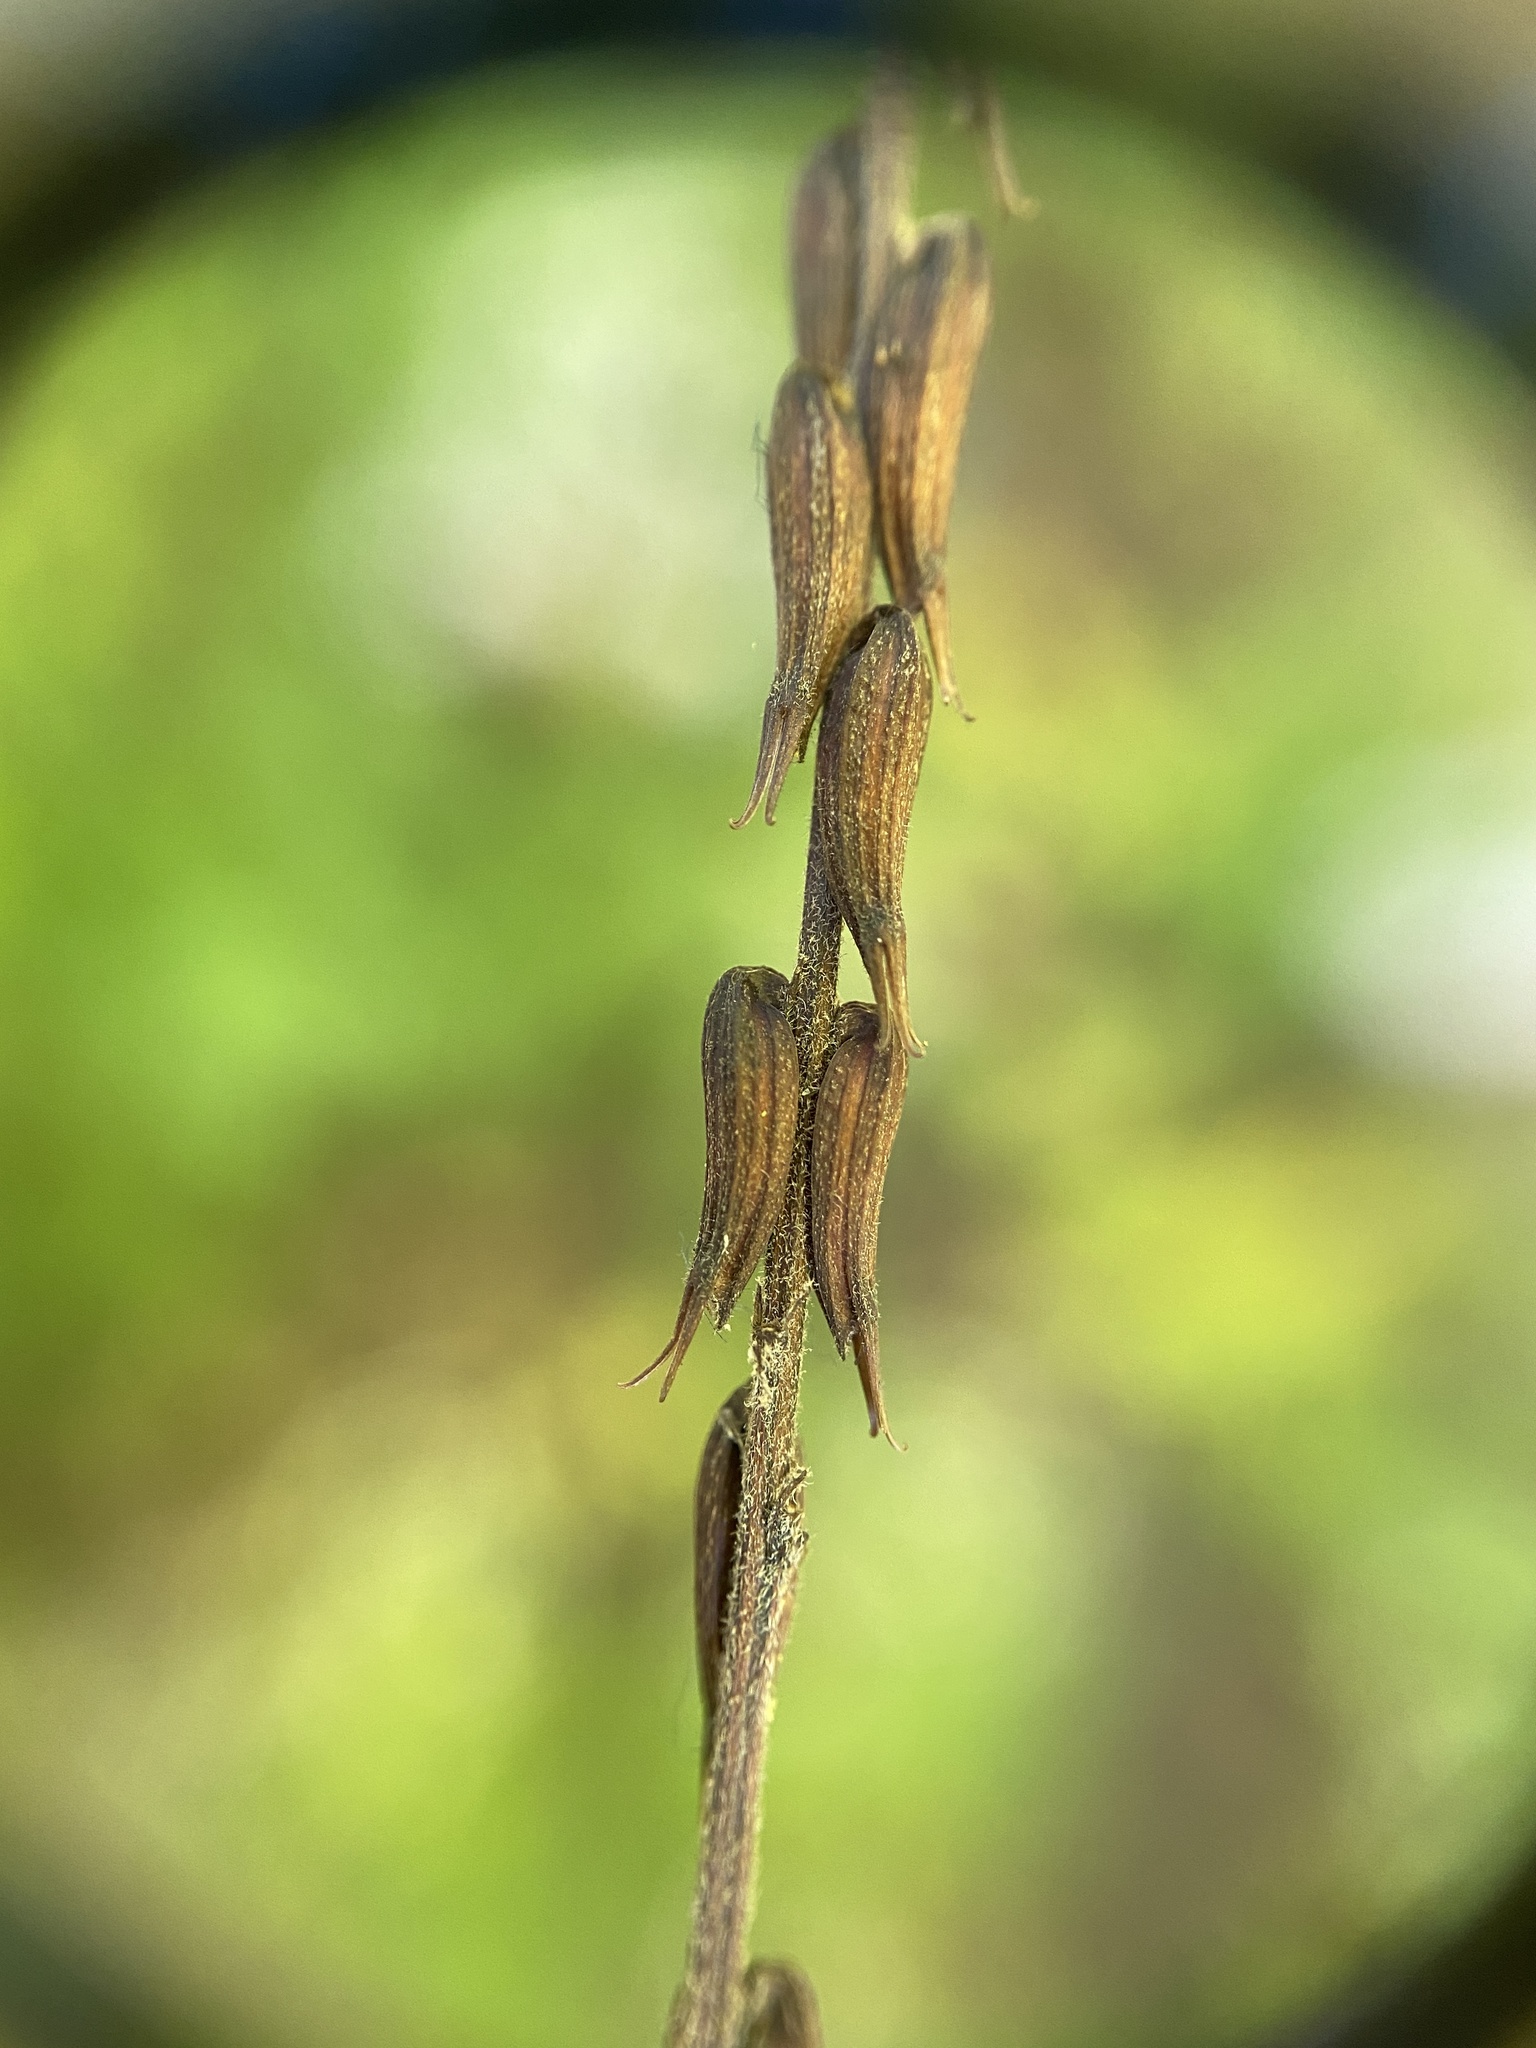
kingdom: Plantae
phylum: Tracheophyta
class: Magnoliopsida
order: Lamiales
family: Phrymaceae
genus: Phryma
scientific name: Phryma leptostachya
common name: American lopseed
